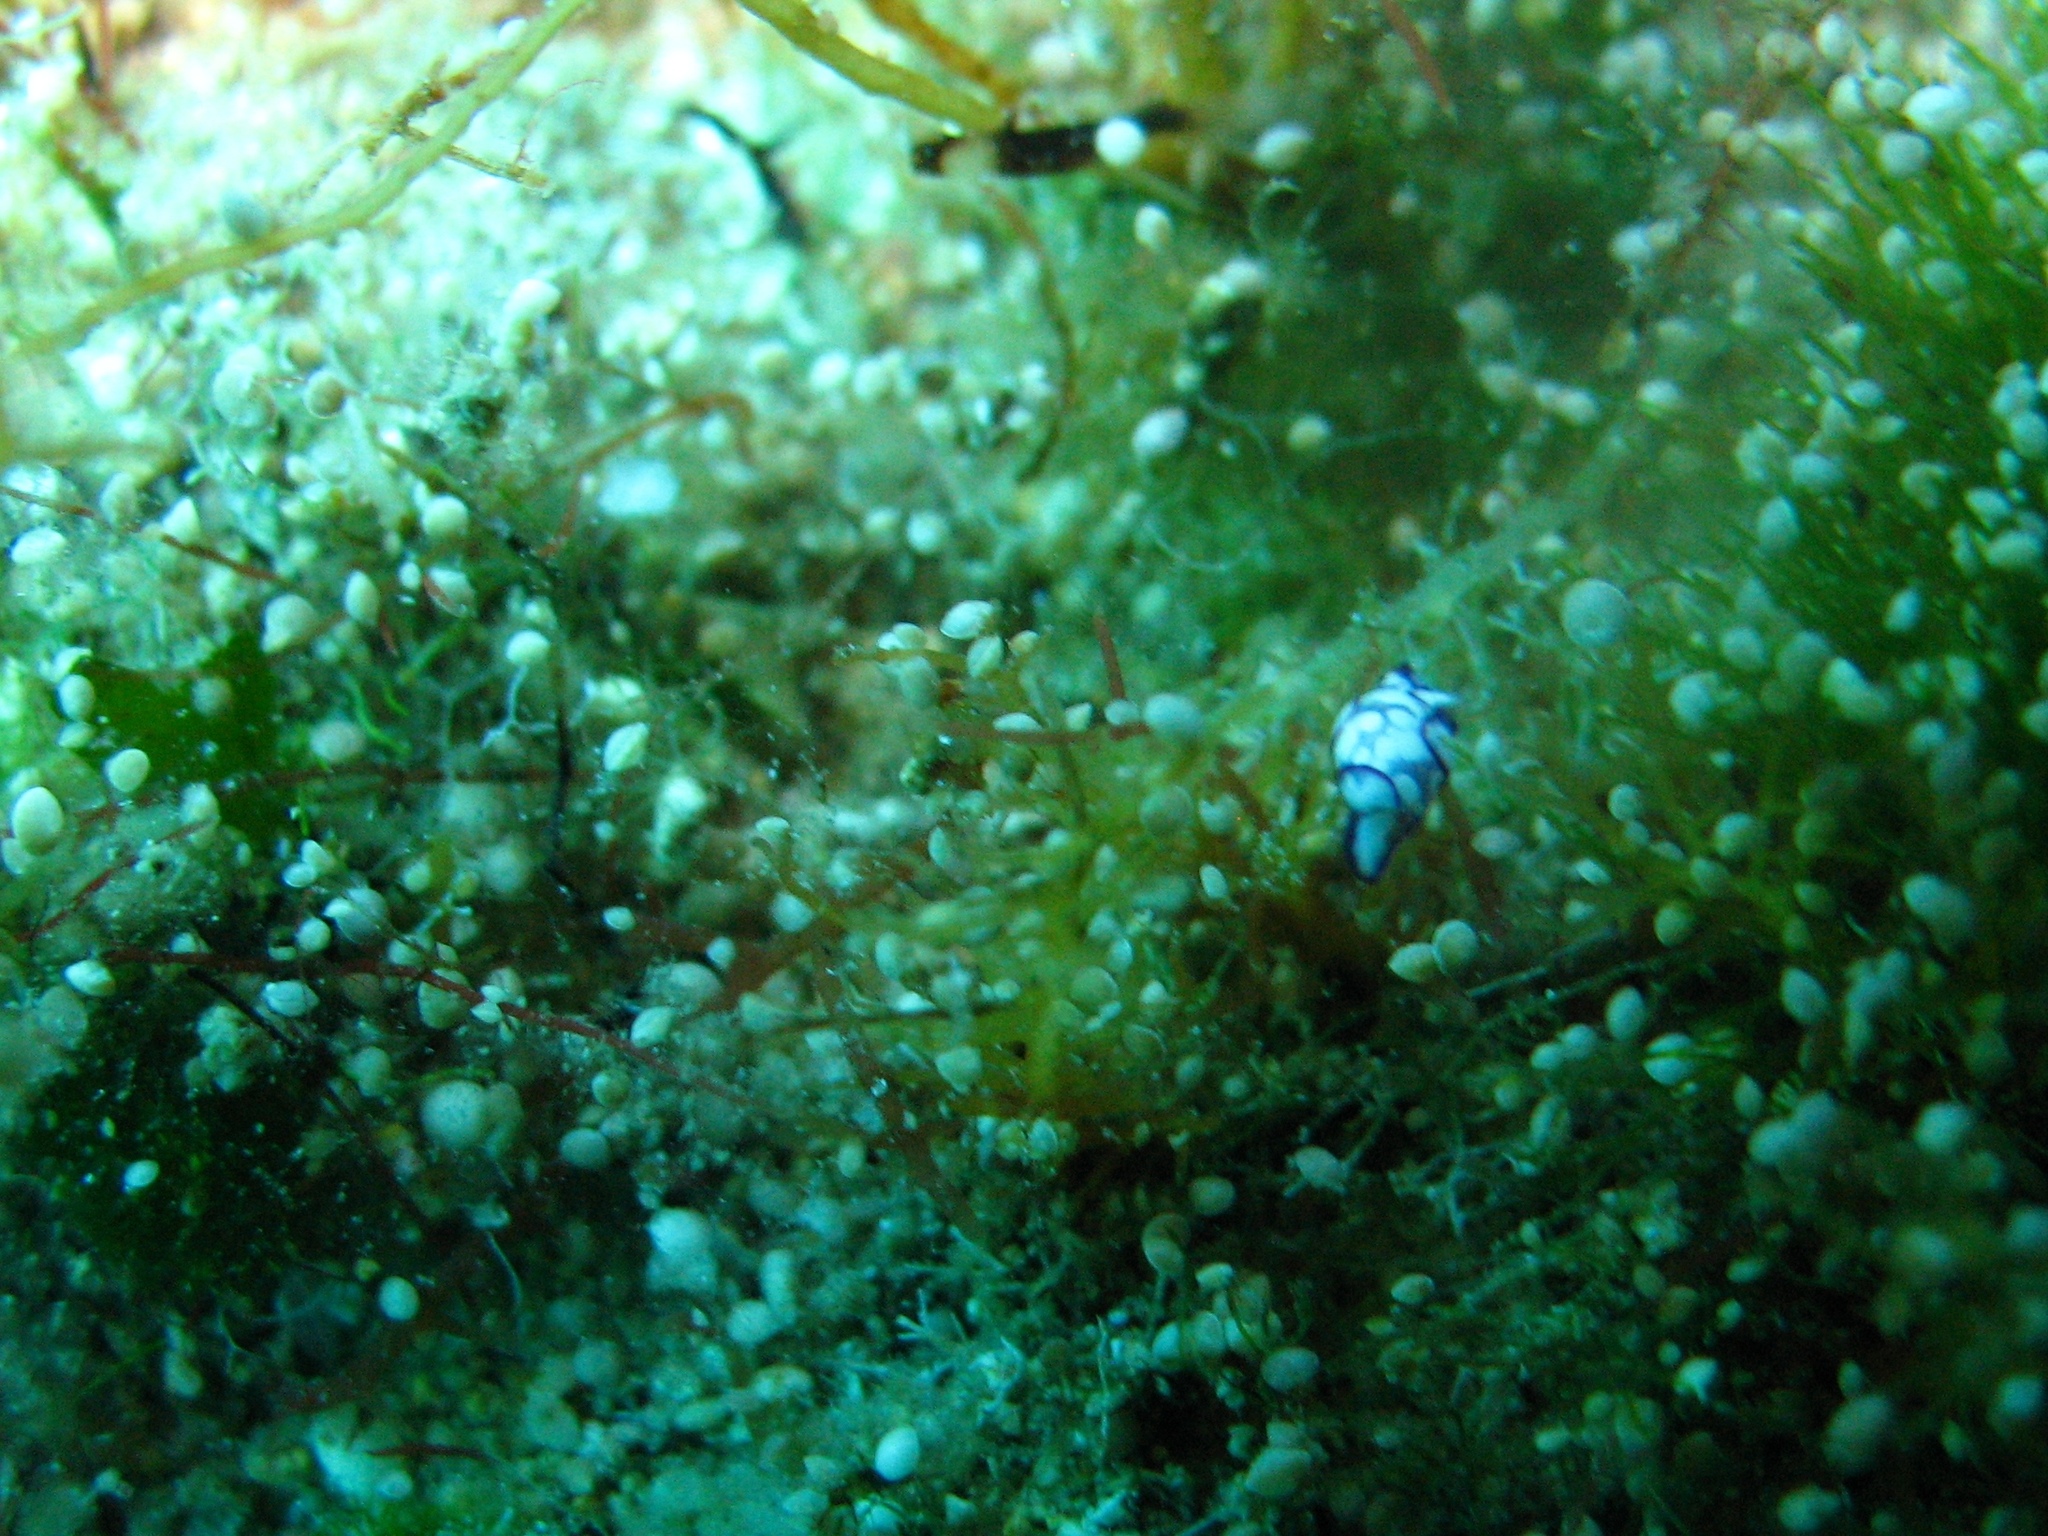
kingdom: Animalia
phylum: Mollusca
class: Gastropoda
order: Cephalaspidea
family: Haminoeidae
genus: Lamprohaminoea
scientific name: Lamprohaminoea ovalis
